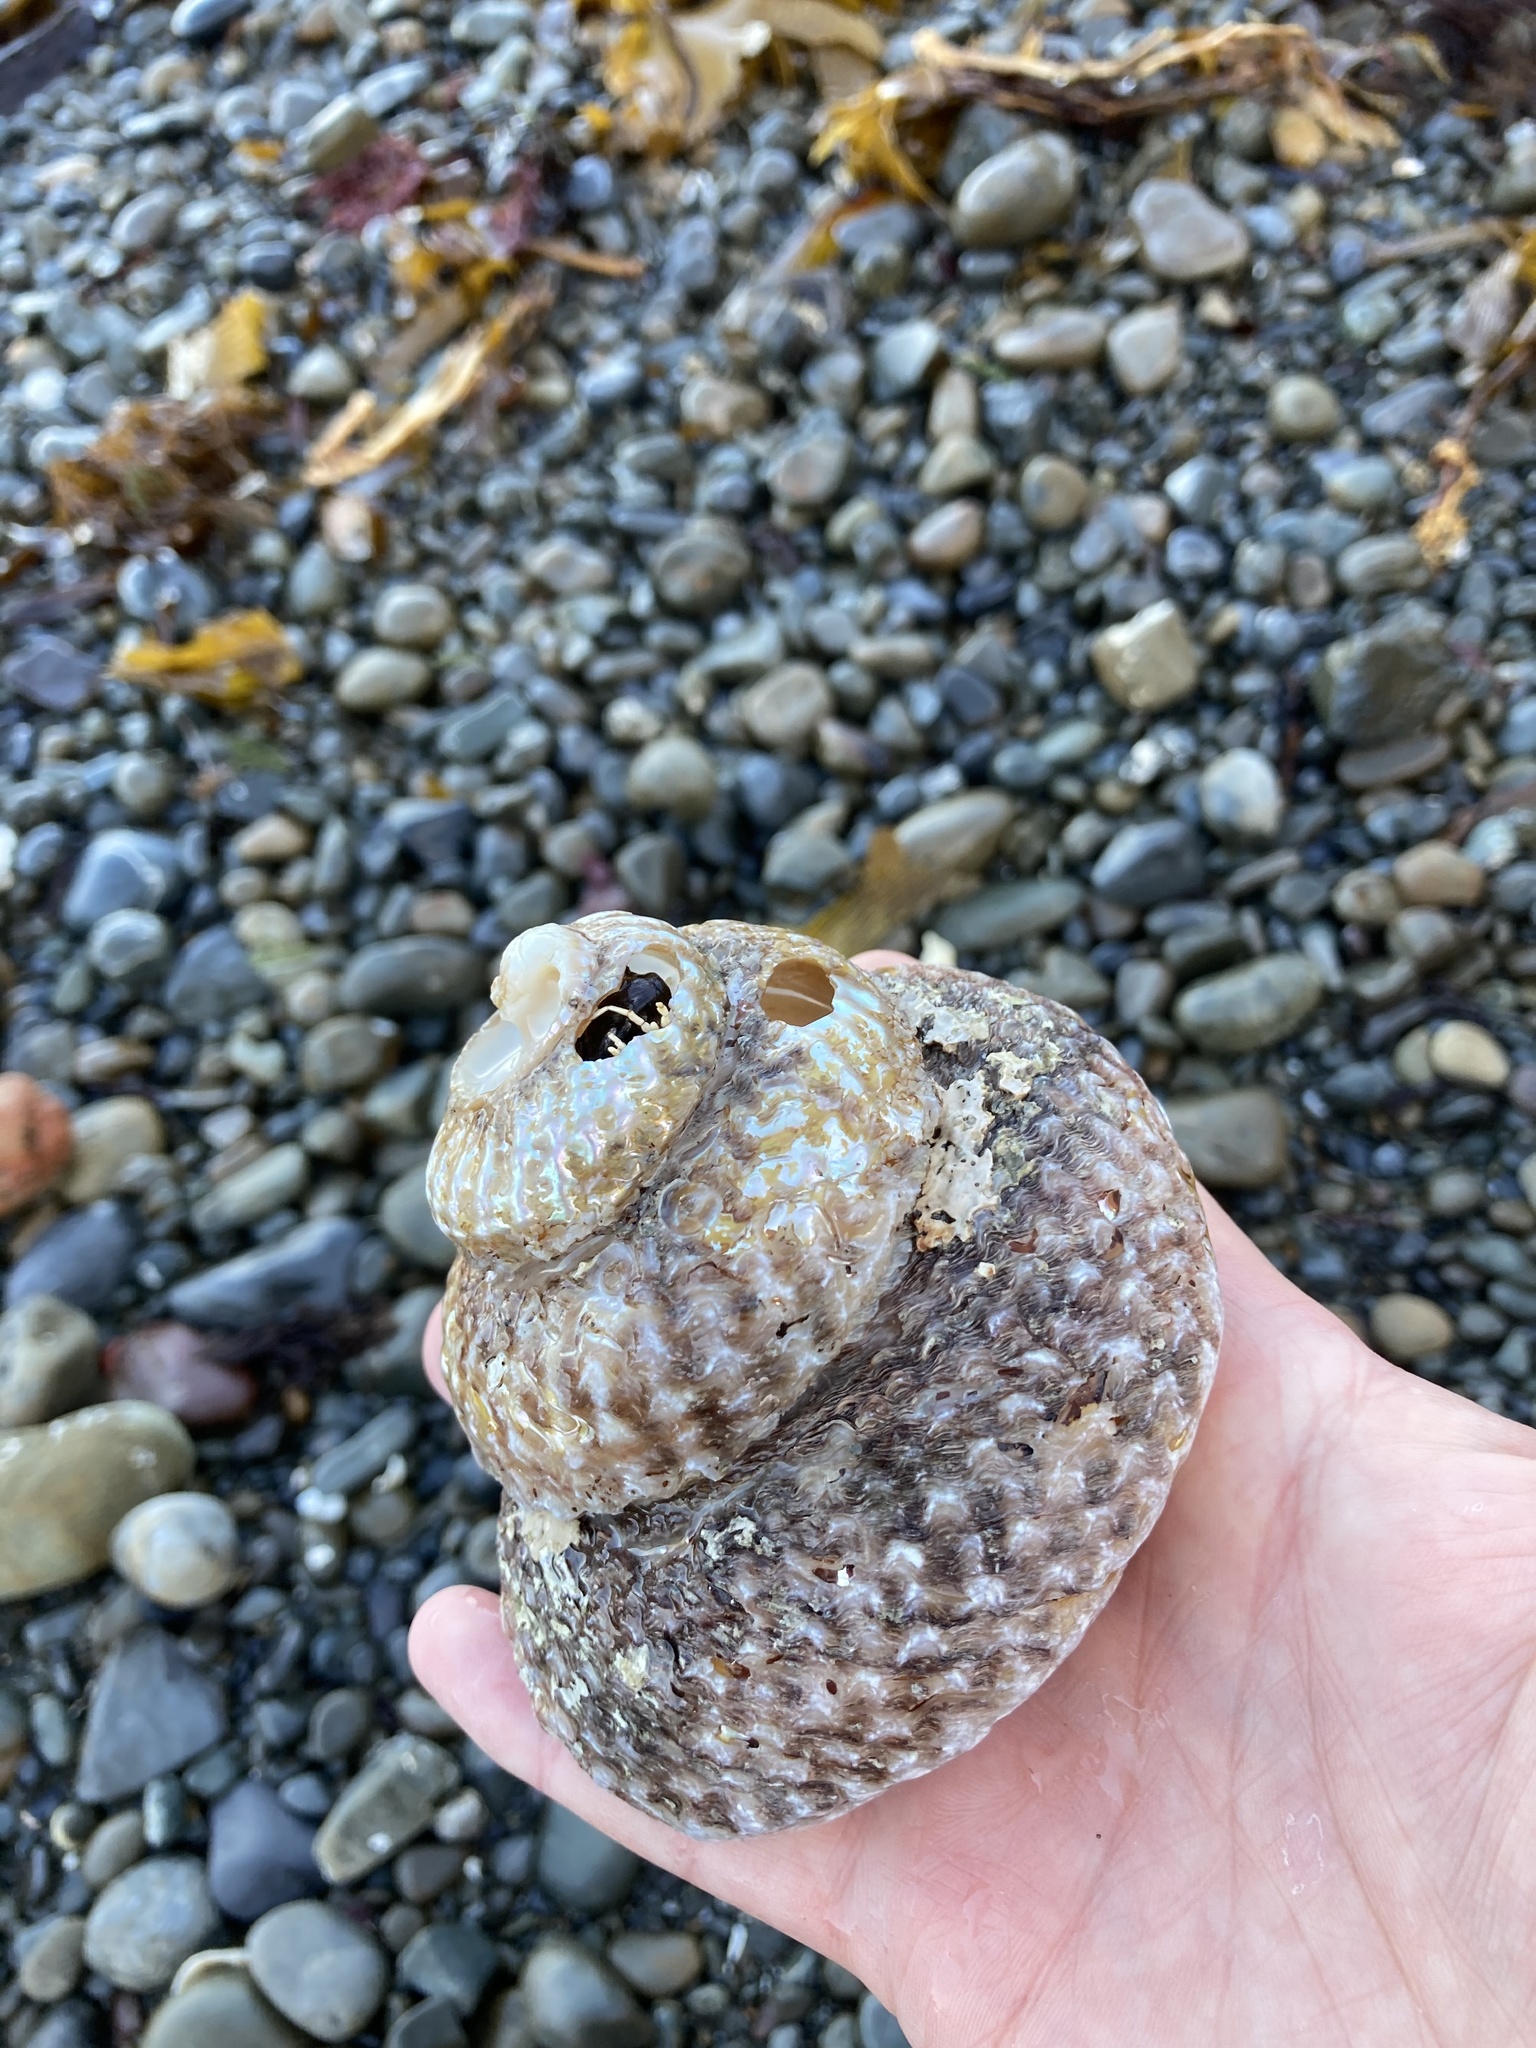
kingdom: Animalia
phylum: Mollusca
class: Gastropoda
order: Trochida
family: Turbinidae
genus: Cookia
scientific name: Cookia sulcata
